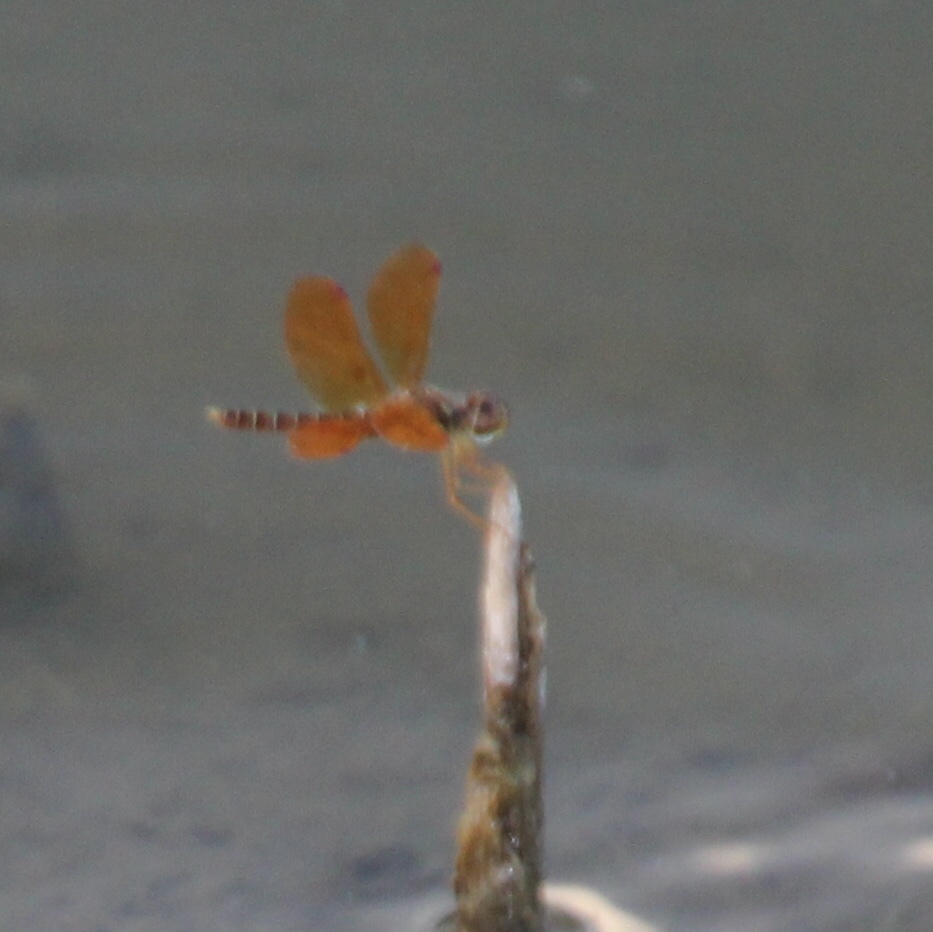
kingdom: Animalia
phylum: Arthropoda
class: Insecta
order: Odonata
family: Libellulidae
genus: Perithemis
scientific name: Perithemis tenera
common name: Eastern amberwing
